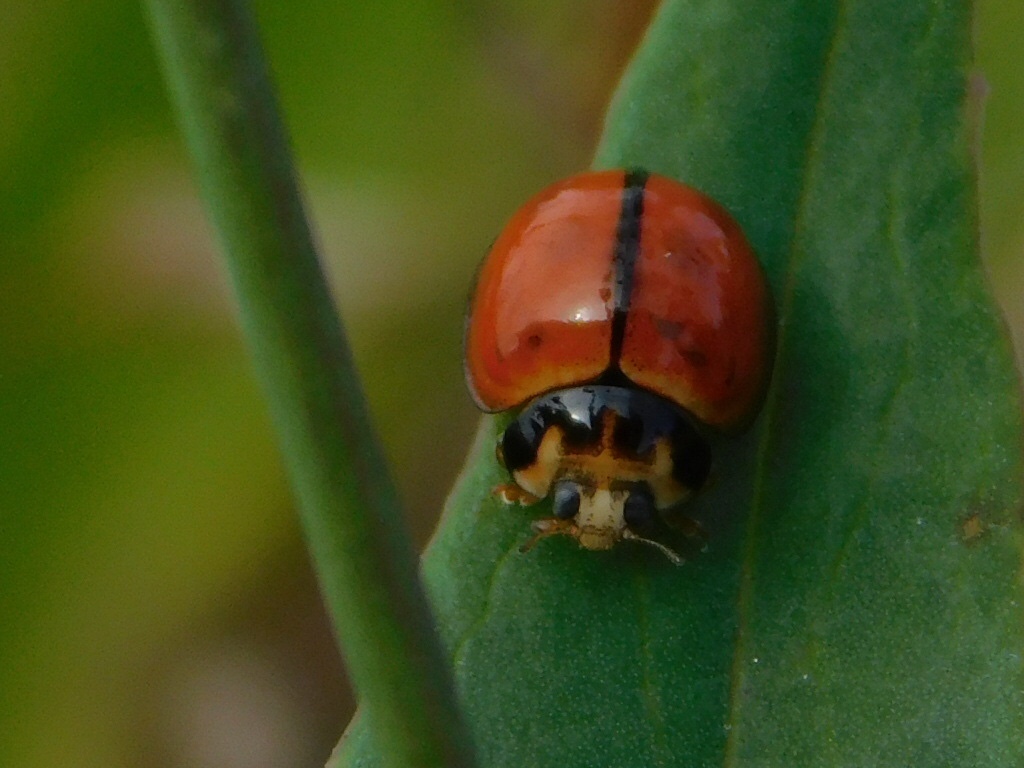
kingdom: Animalia
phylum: Arthropoda
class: Insecta
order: Coleoptera
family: Coccinellidae
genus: Coelophora
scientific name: Coelophora inaequalis
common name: Common australian lady beetle
